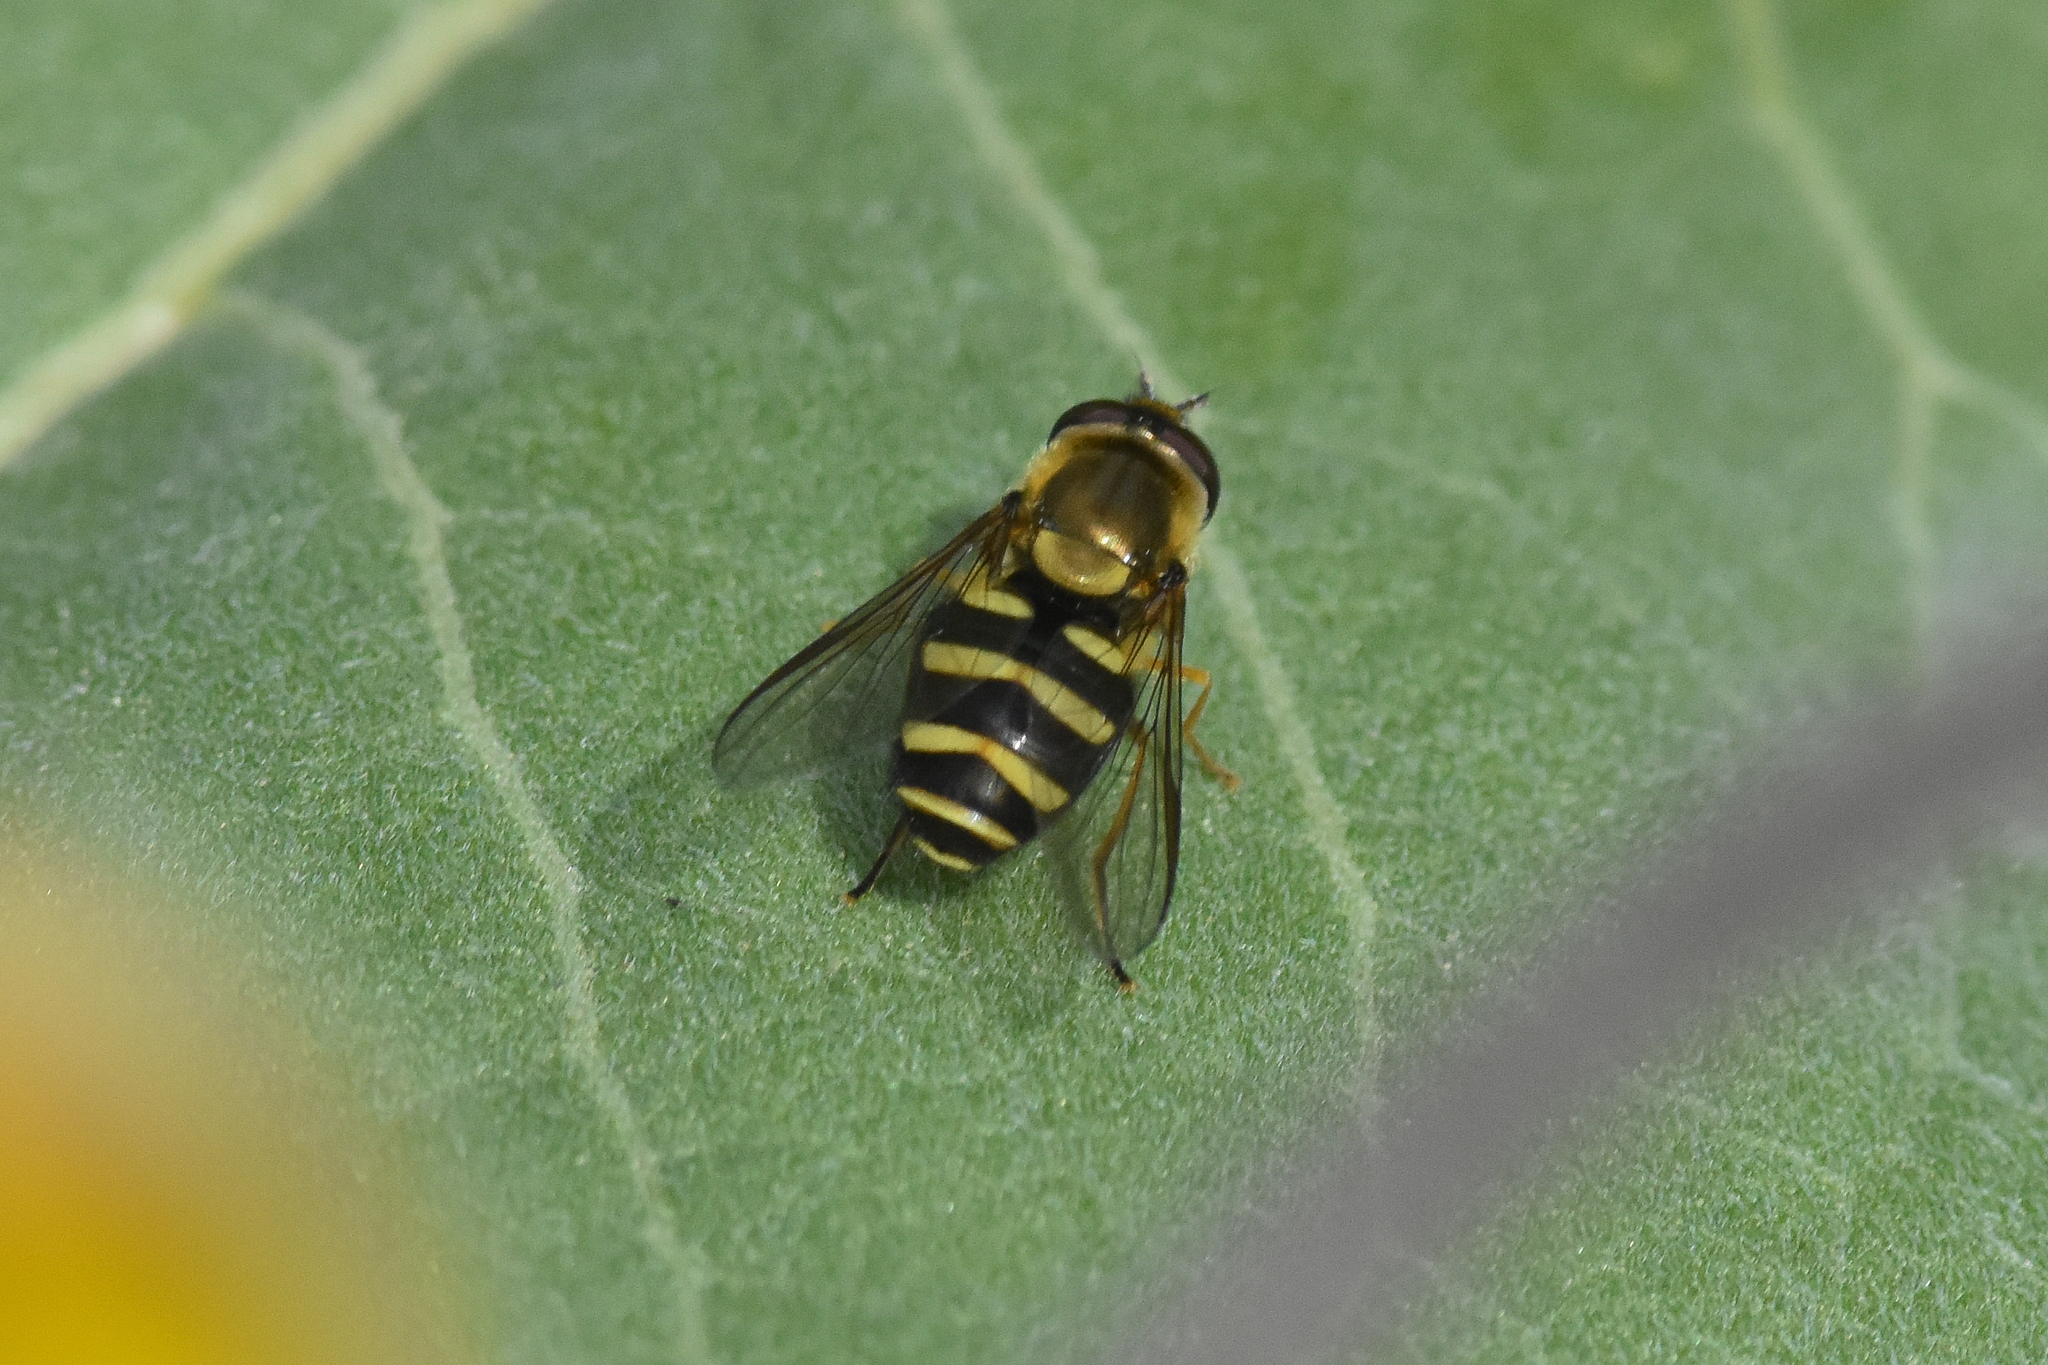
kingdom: Animalia
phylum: Arthropoda
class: Insecta
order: Diptera
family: Syrphidae
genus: Syrphus
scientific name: Syrphus opinator
